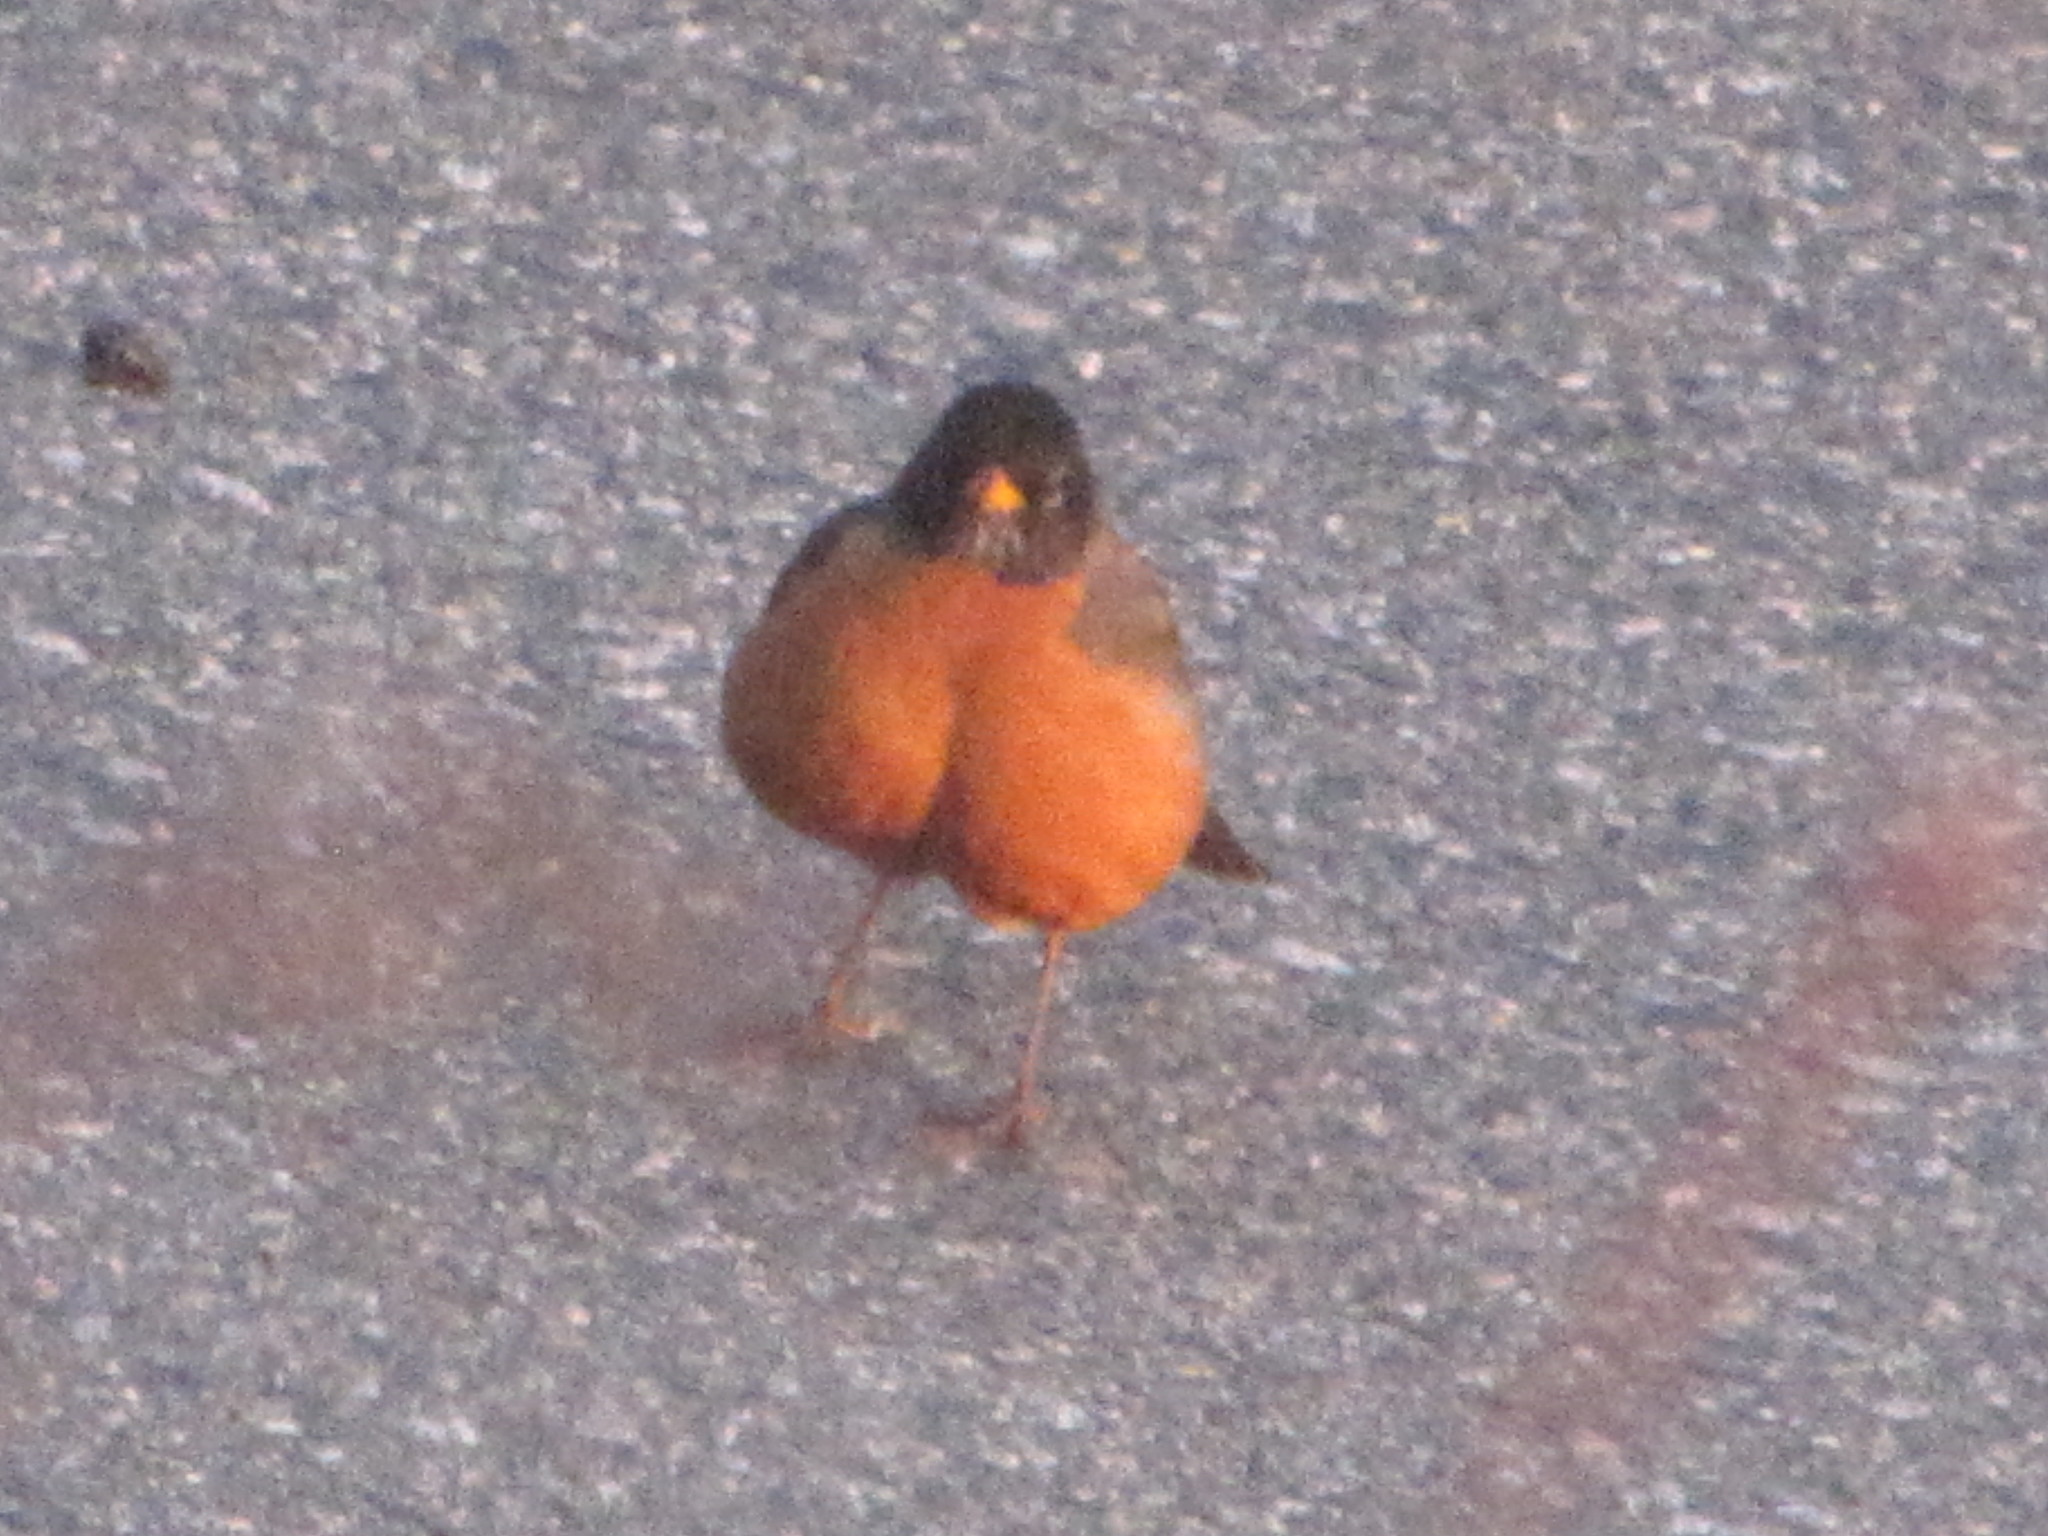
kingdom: Animalia
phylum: Chordata
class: Aves
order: Passeriformes
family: Turdidae
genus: Turdus
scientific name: Turdus migratorius
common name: American robin
